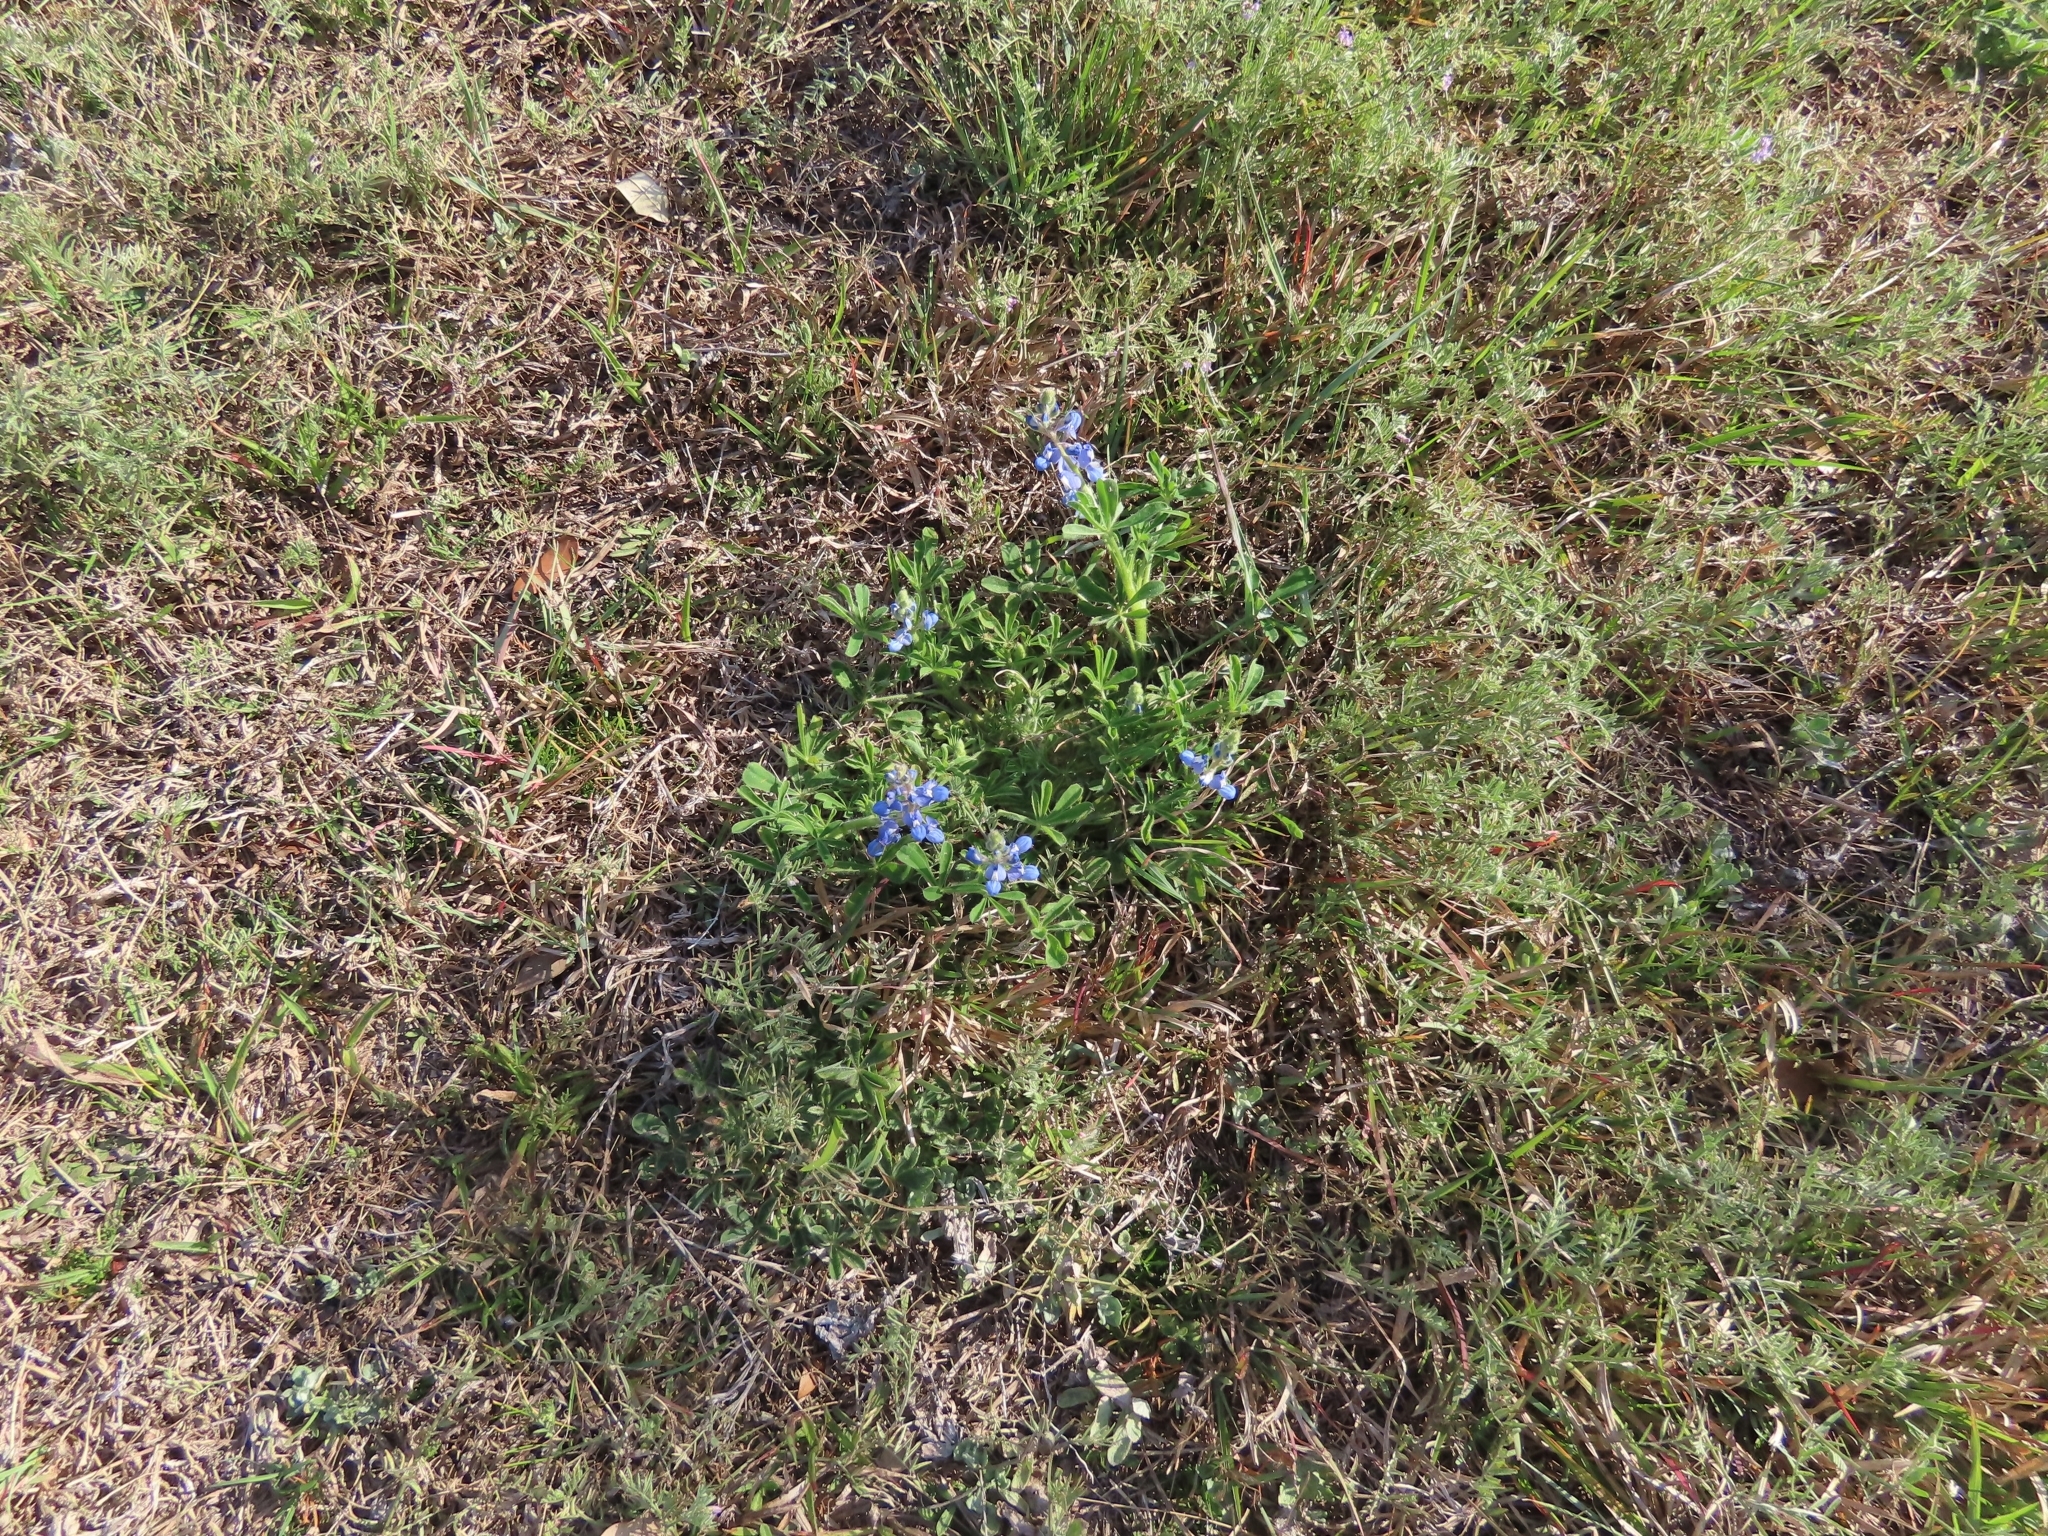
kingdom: Plantae
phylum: Tracheophyta
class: Magnoliopsida
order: Fabales
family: Fabaceae
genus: Lupinus
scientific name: Lupinus subcarnosus
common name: Texas bluebonnet
